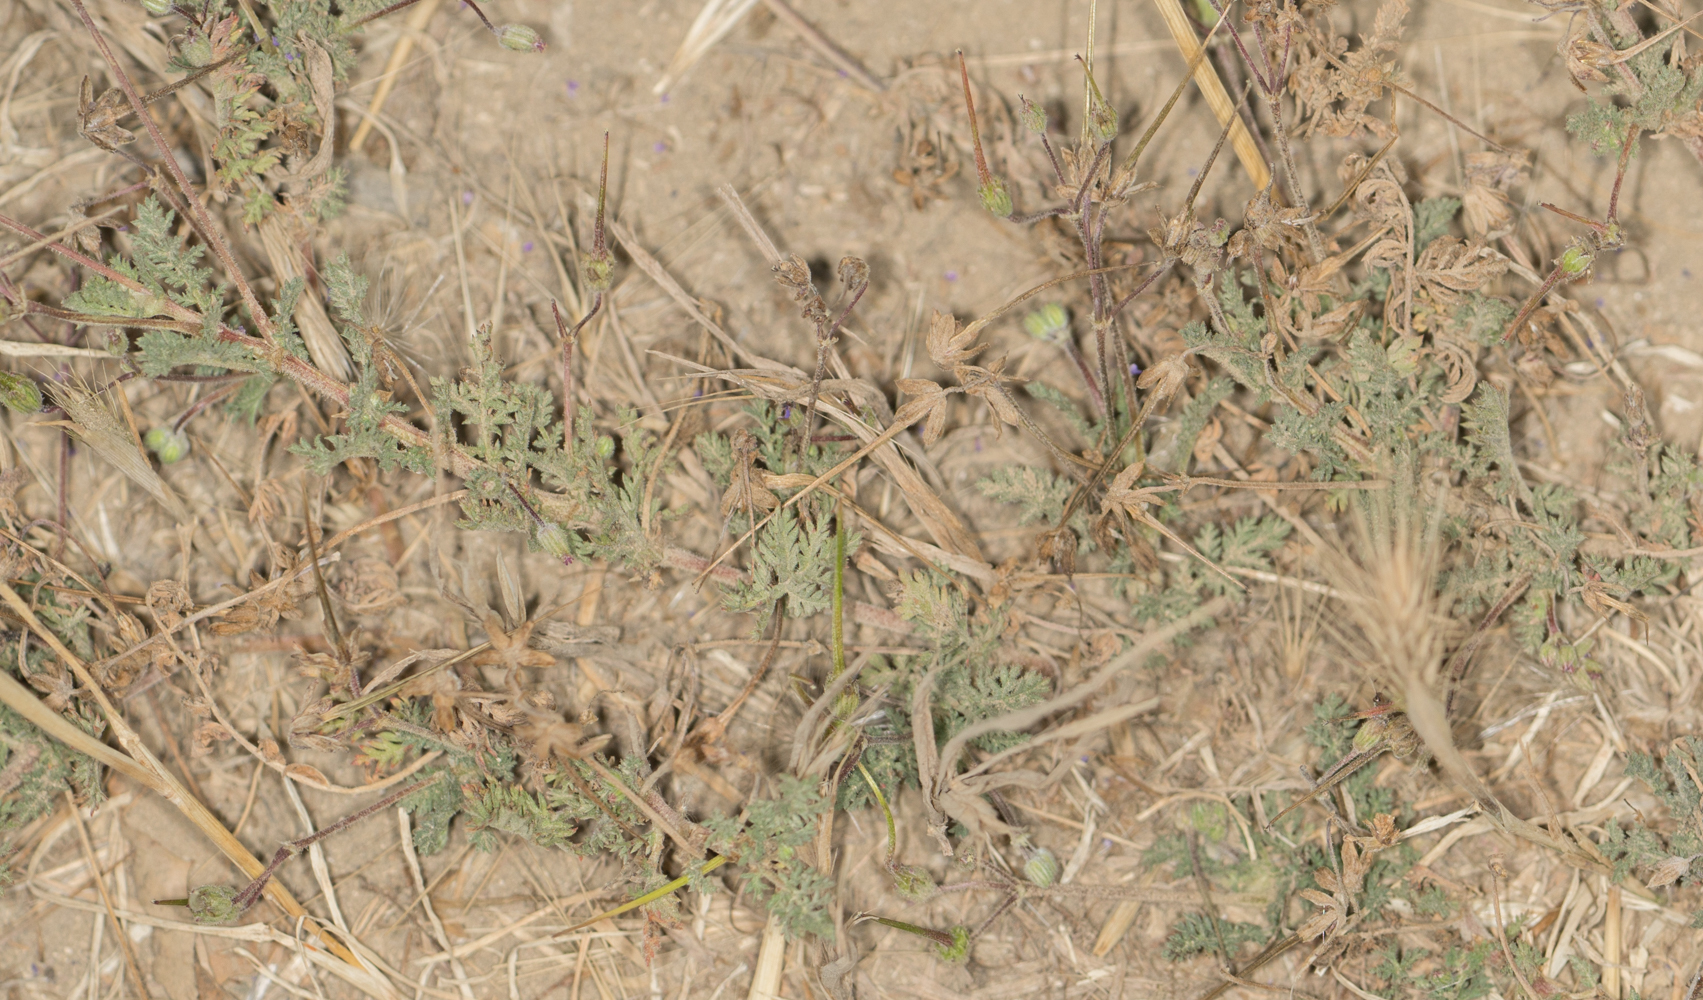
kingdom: Plantae
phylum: Tracheophyta
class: Magnoliopsida
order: Geraniales
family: Geraniaceae
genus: Erodium
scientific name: Erodium cicutarium
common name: Common stork's-bill
